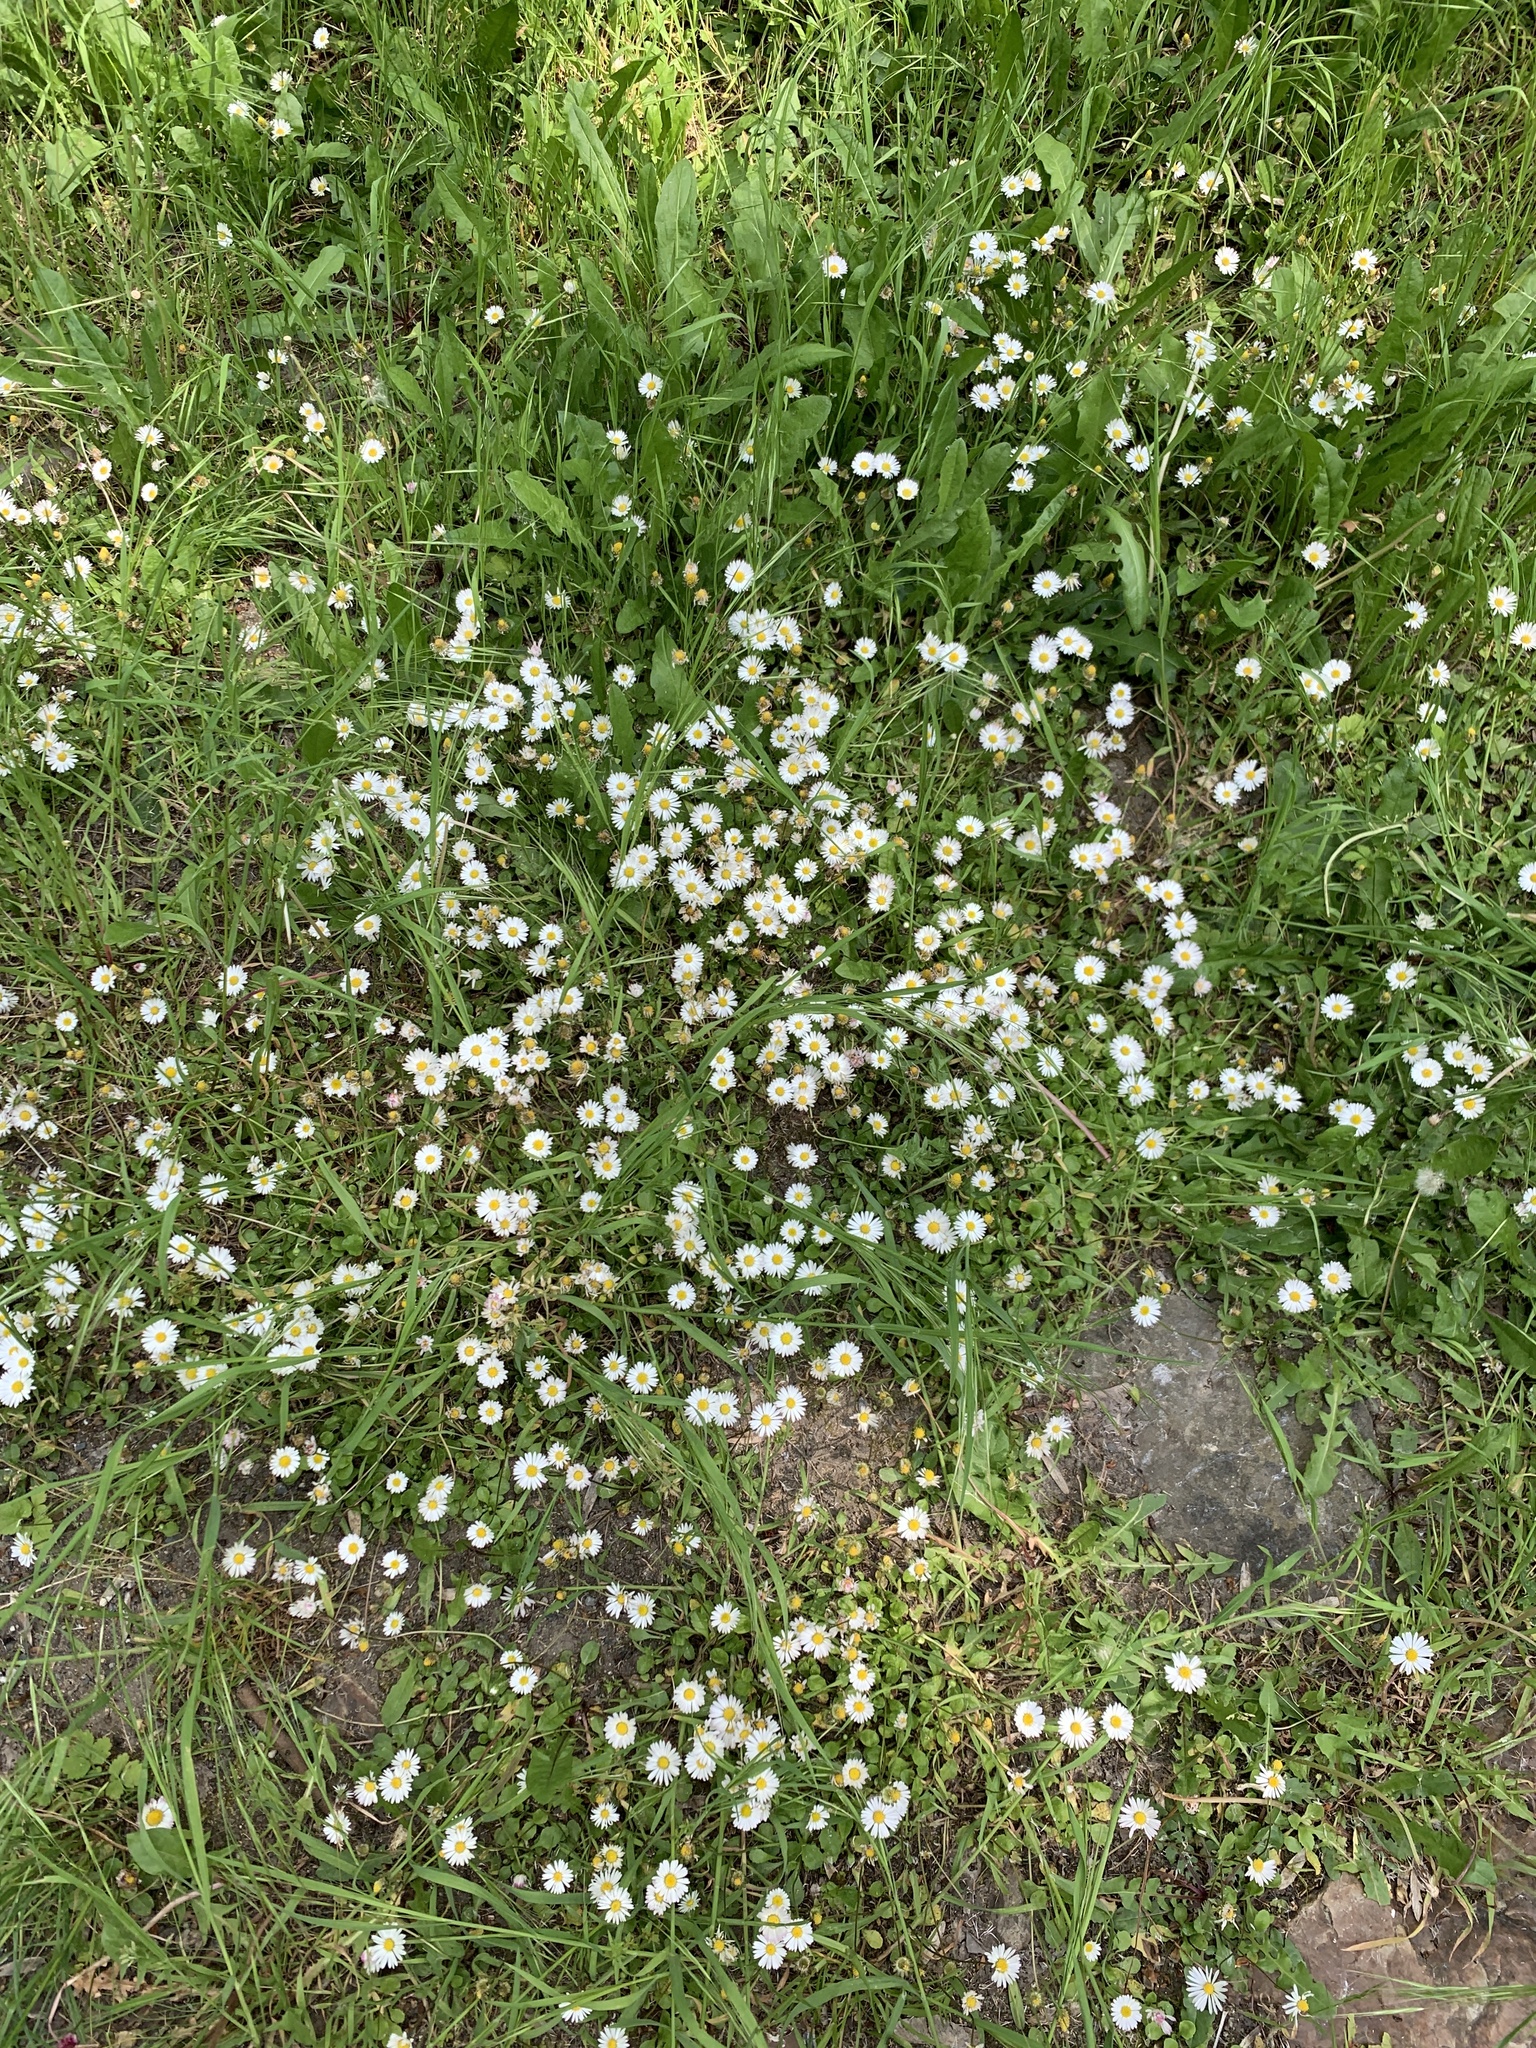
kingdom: Plantae
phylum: Tracheophyta
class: Magnoliopsida
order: Asterales
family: Asteraceae
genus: Bellis
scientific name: Bellis perennis
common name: Lawndaisy
